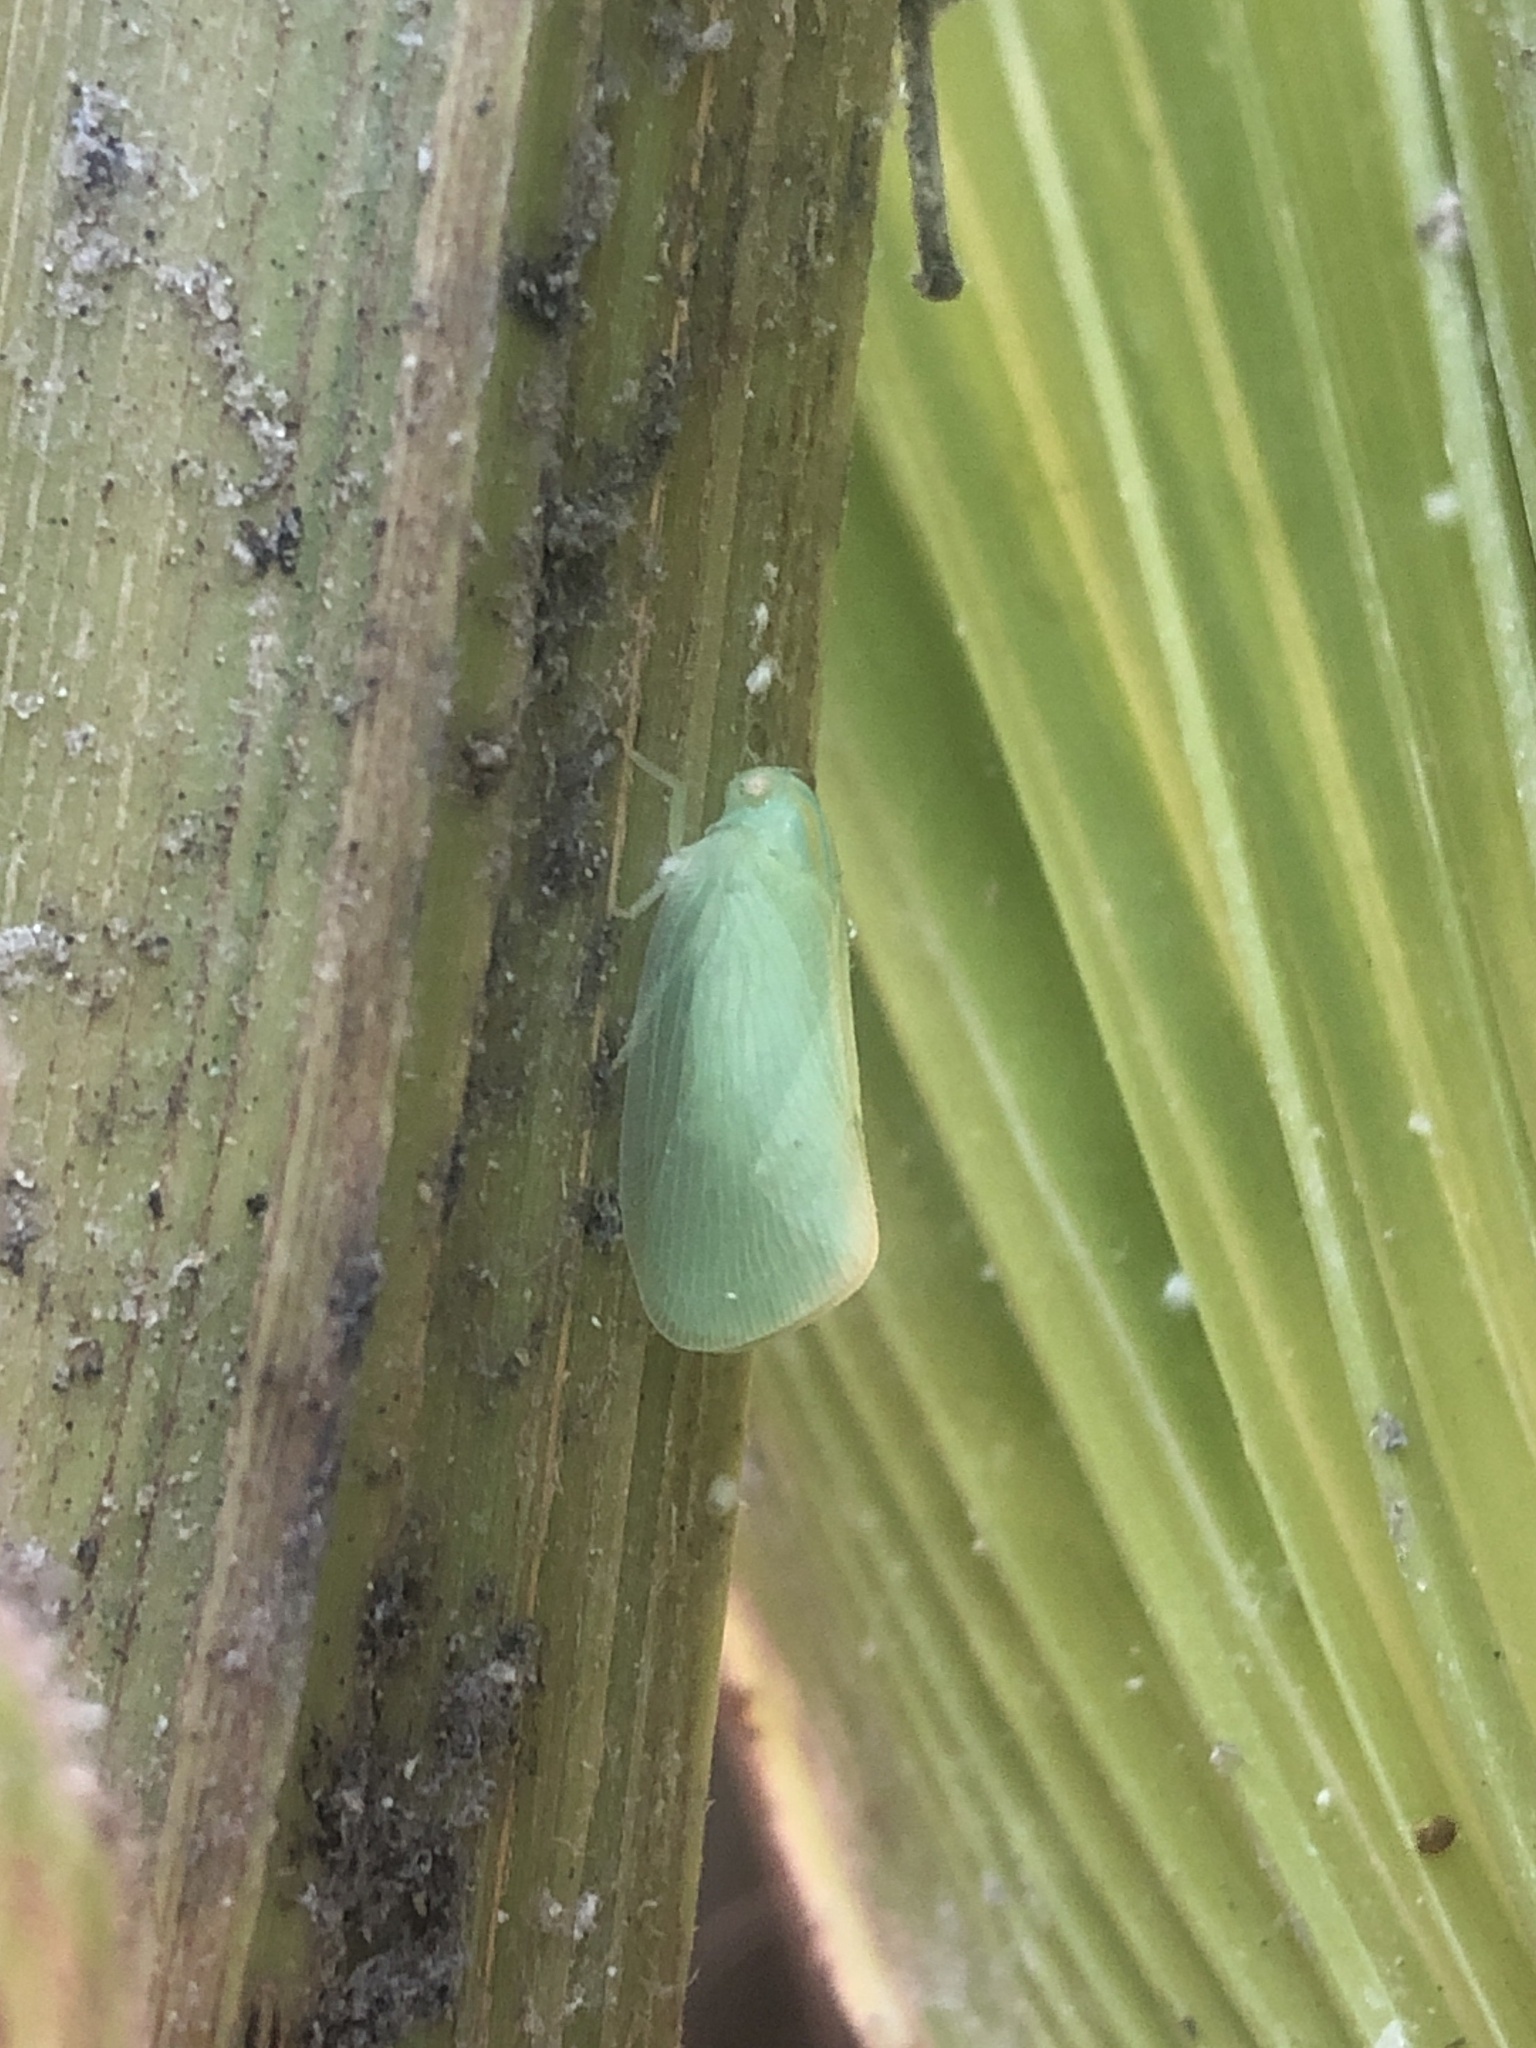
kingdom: Animalia
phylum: Arthropoda
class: Insecta
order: Hemiptera
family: Flatidae
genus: Ormenaria
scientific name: Ormenaria rufifascia
